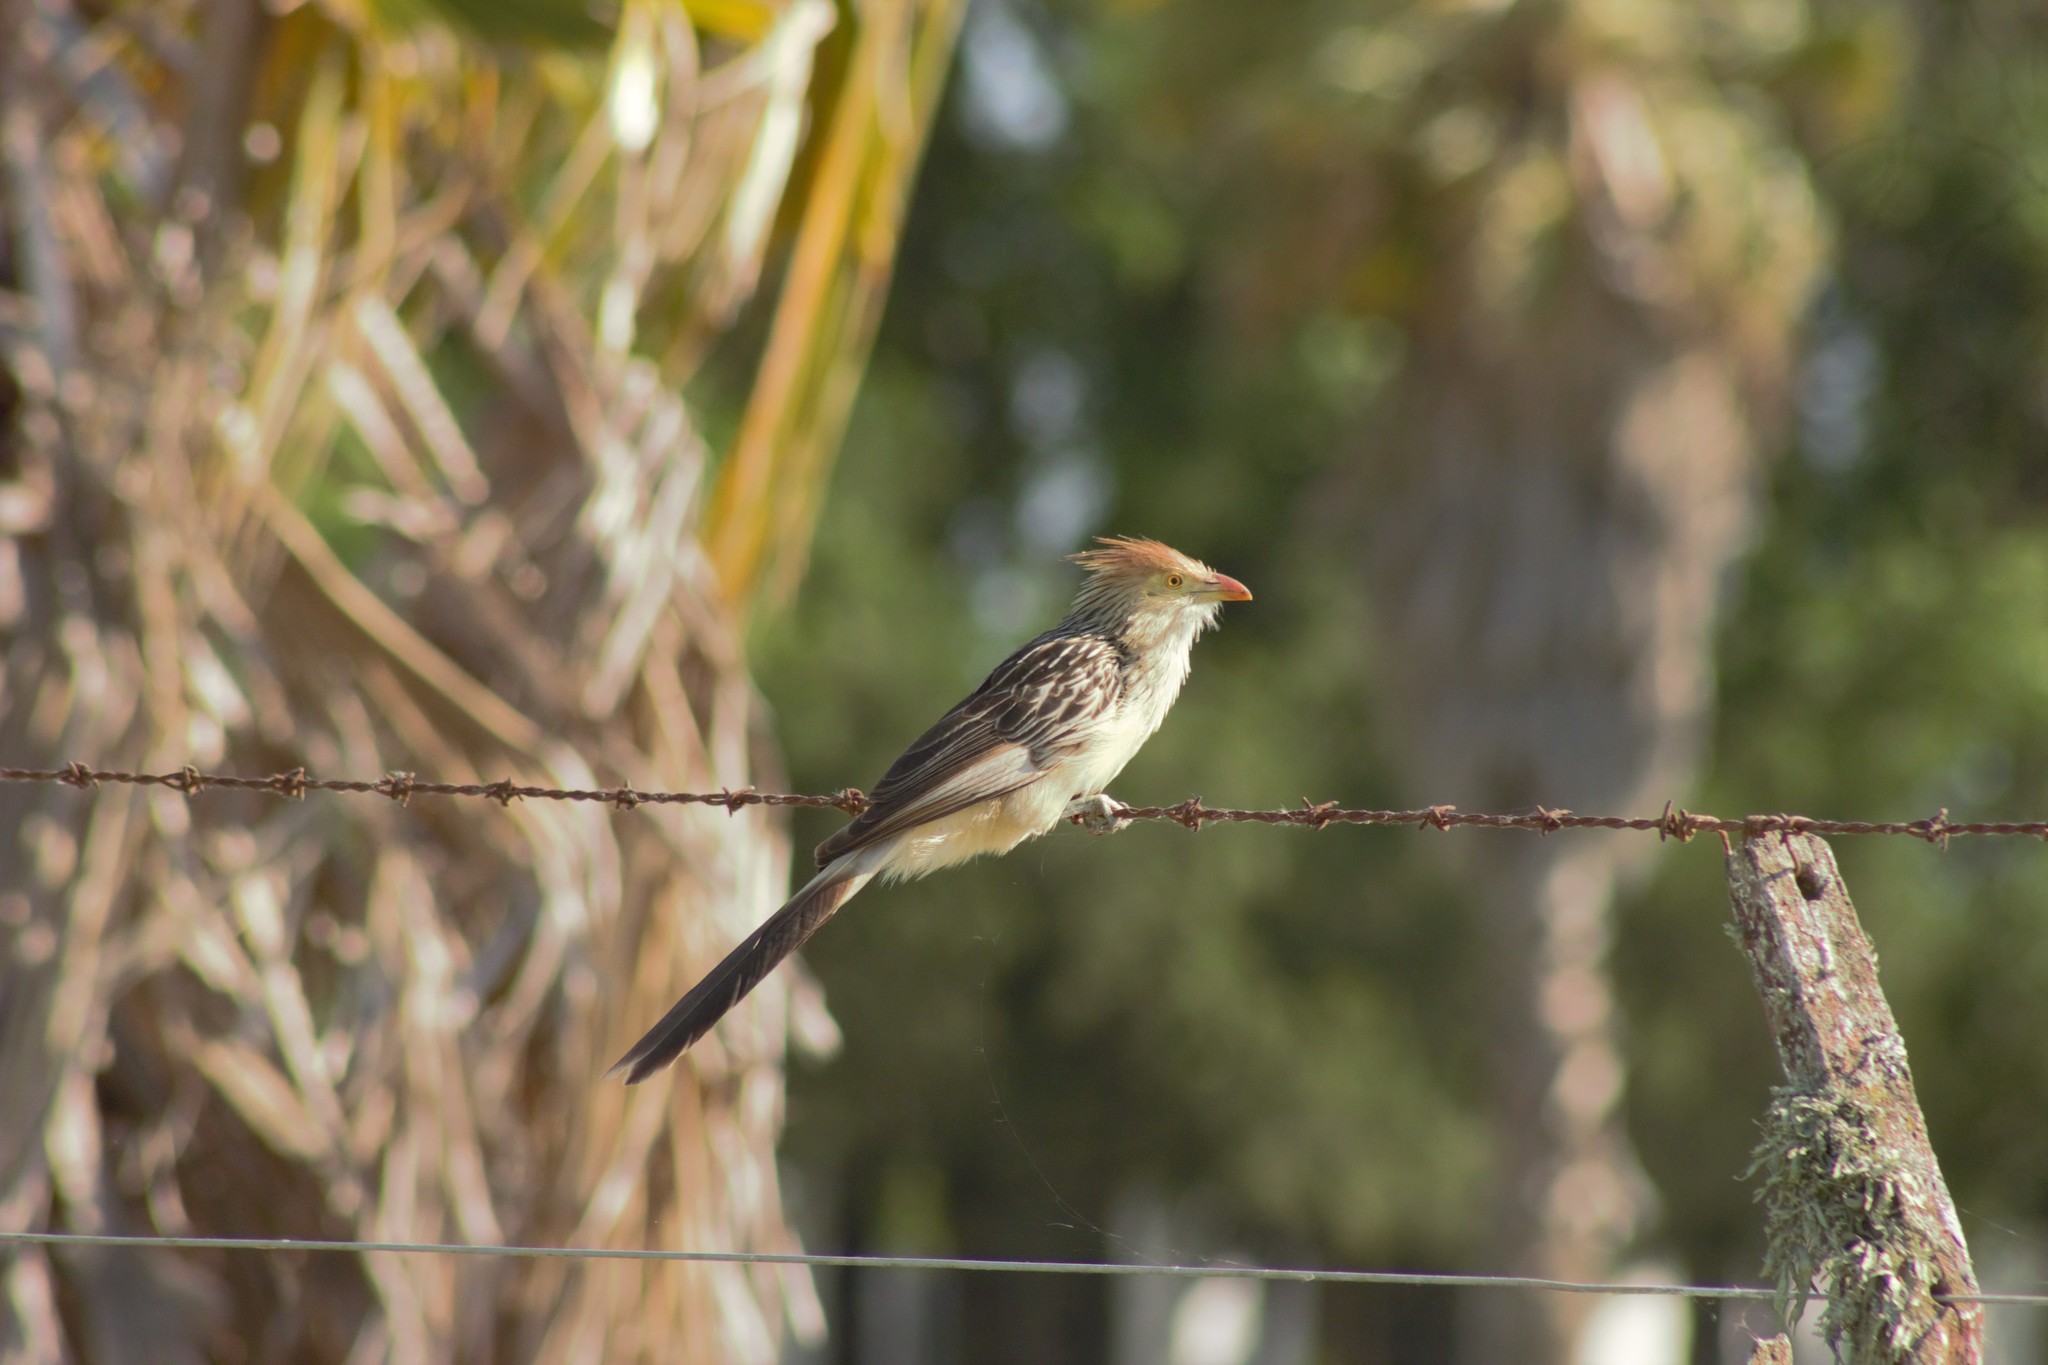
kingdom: Animalia
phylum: Chordata
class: Aves
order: Cuculiformes
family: Cuculidae
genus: Guira
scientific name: Guira guira
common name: Guira cuckoo
